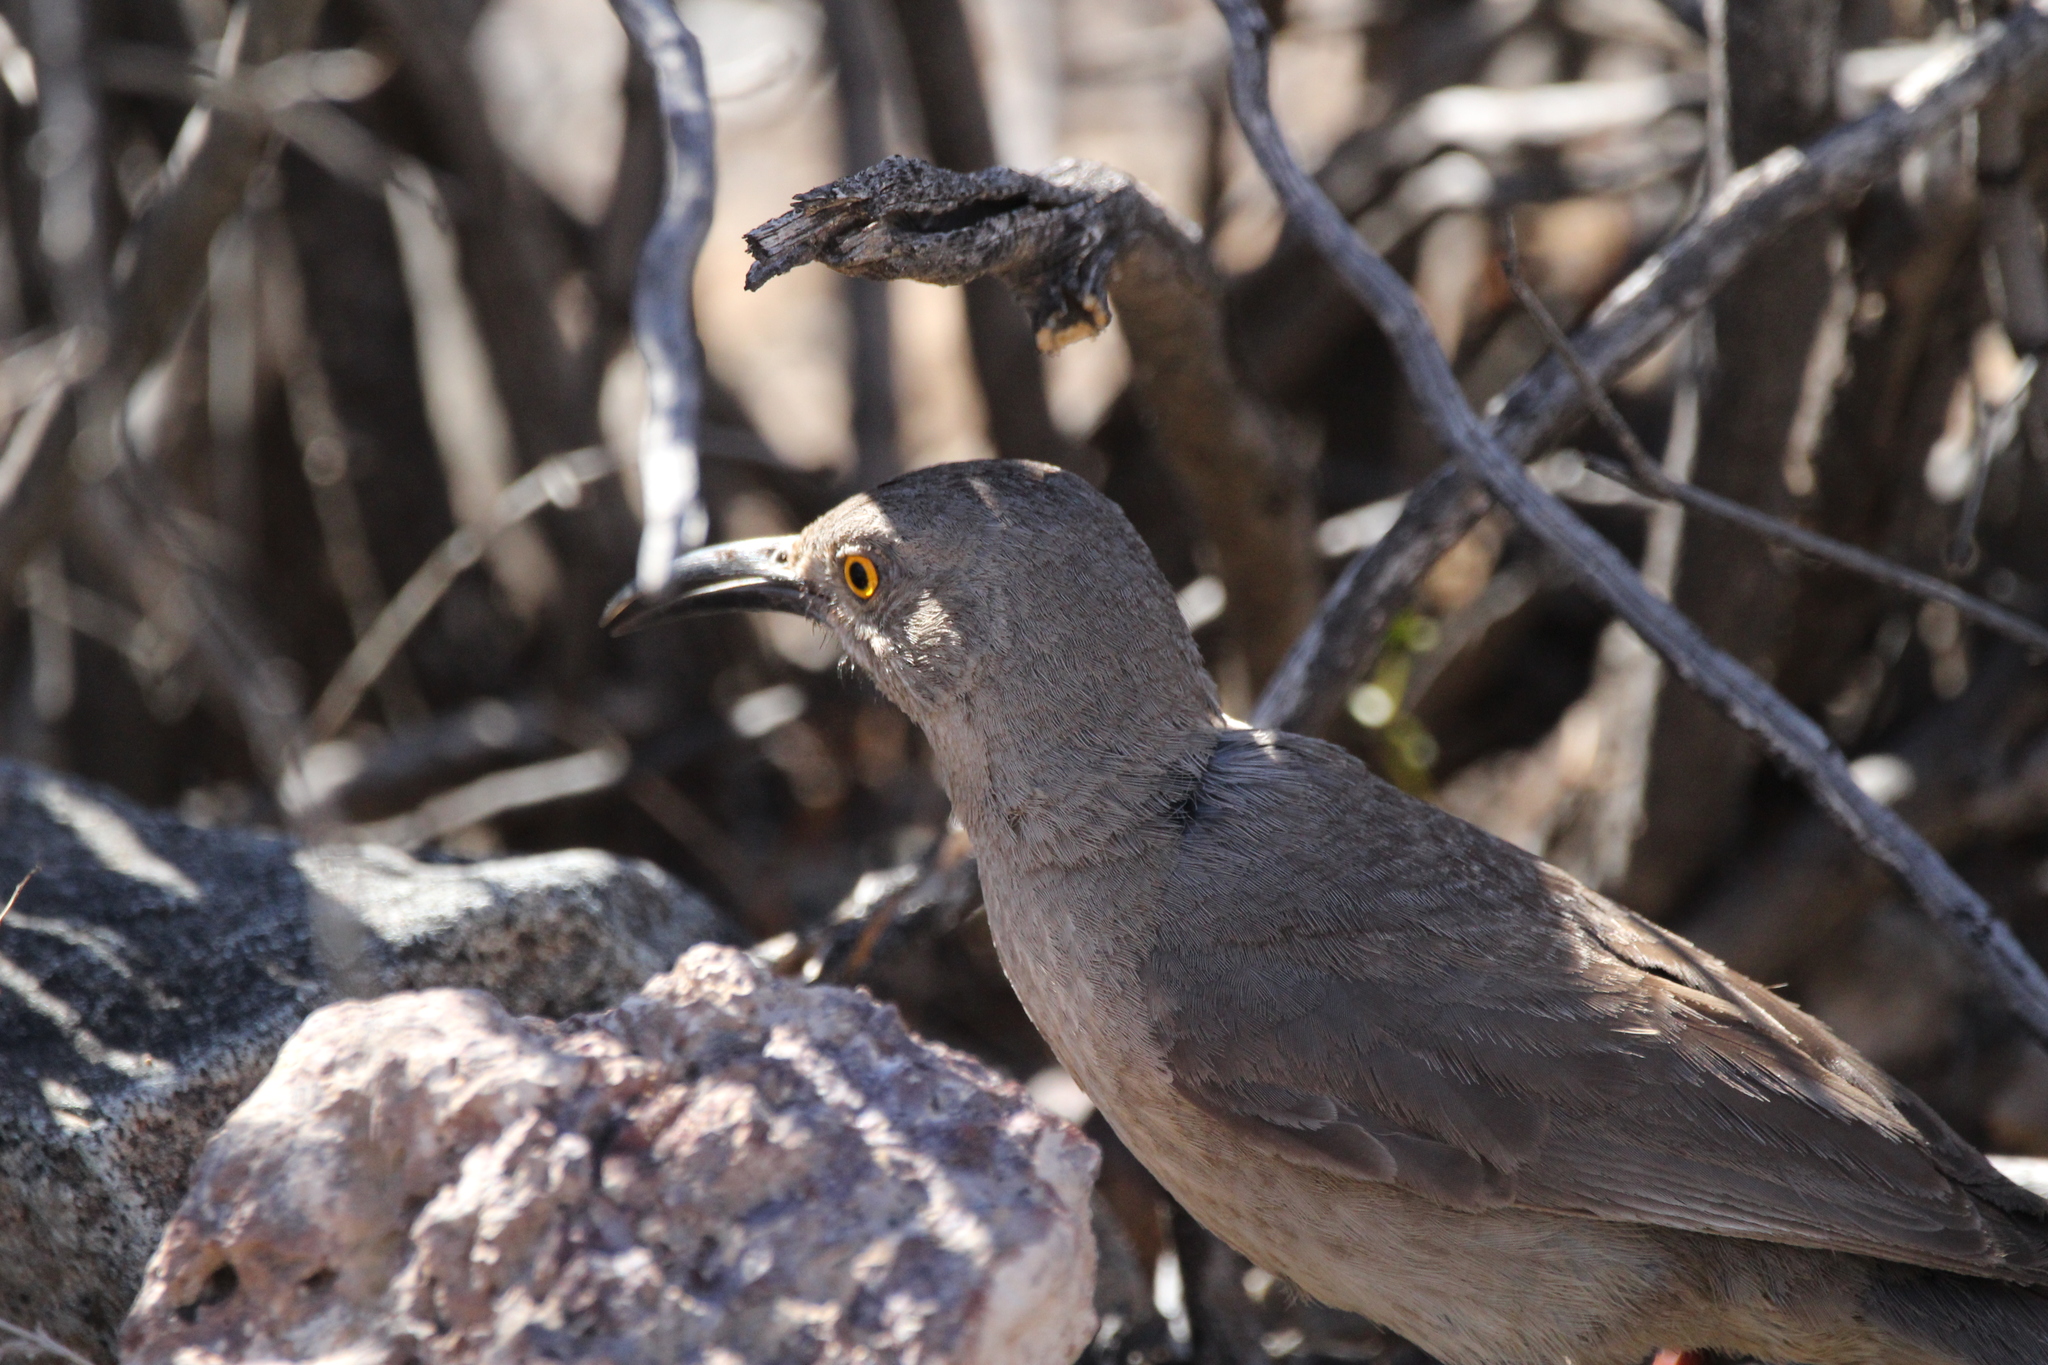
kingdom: Animalia
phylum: Chordata
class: Aves
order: Passeriformes
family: Mimidae
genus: Toxostoma
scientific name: Toxostoma curvirostre
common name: Curve-billed thrasher
